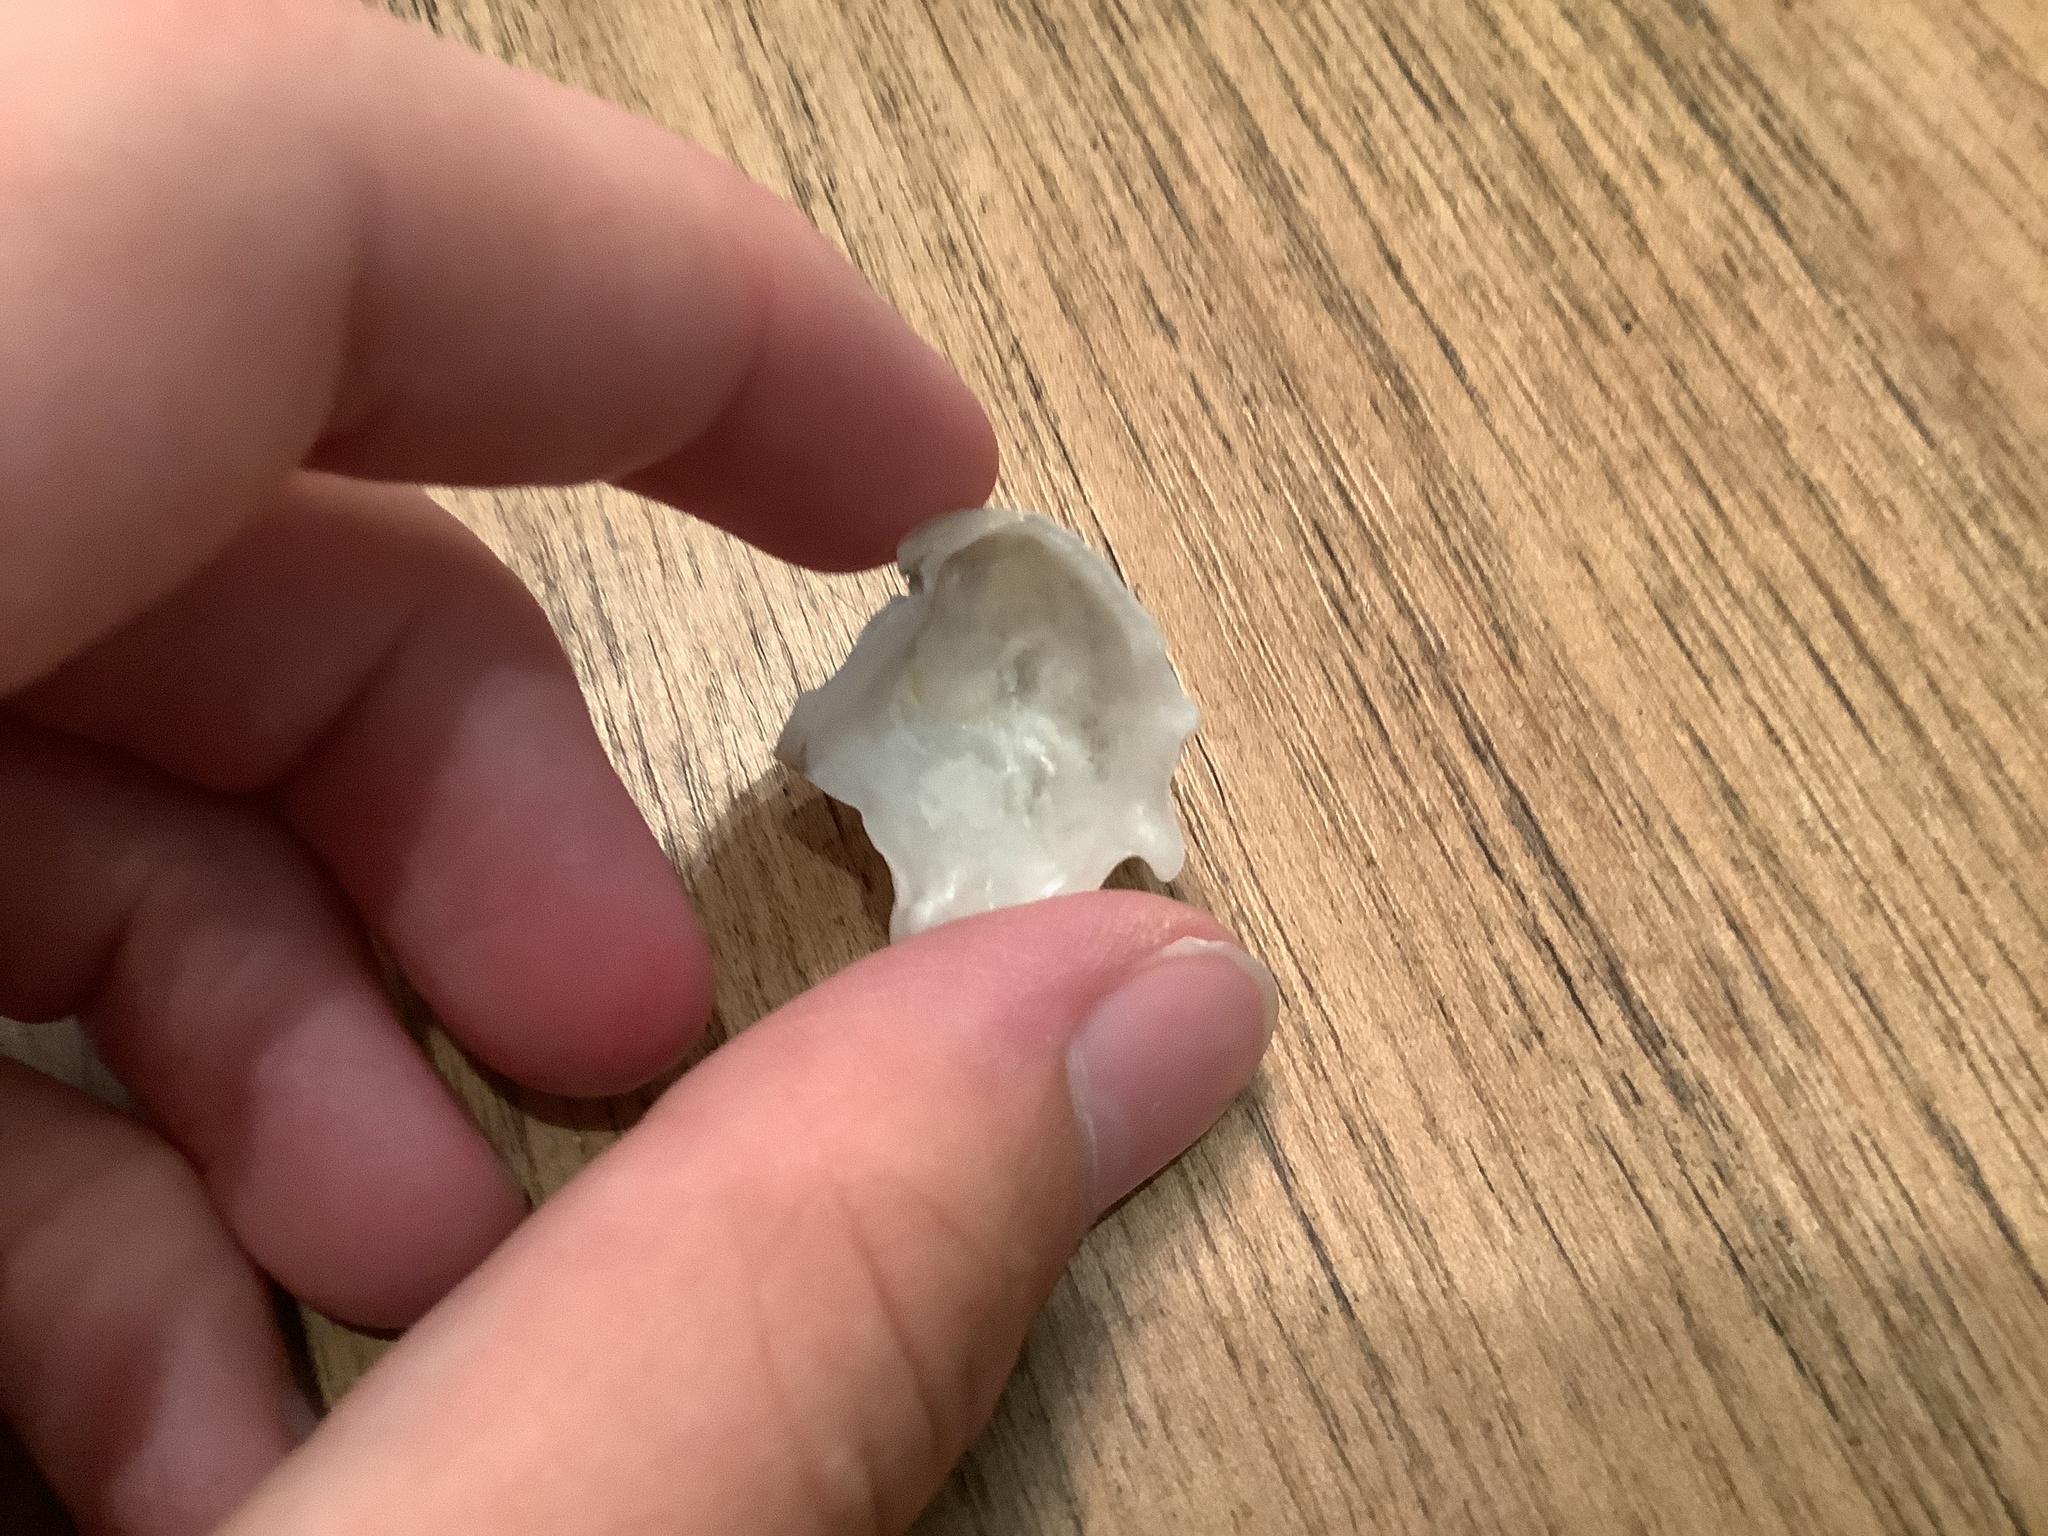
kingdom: Animalia
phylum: Mollusca
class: Bivalvia
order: Ostreida
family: Ostreidae
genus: Ostrea
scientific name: Ostrea equestris
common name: Crested oyster
